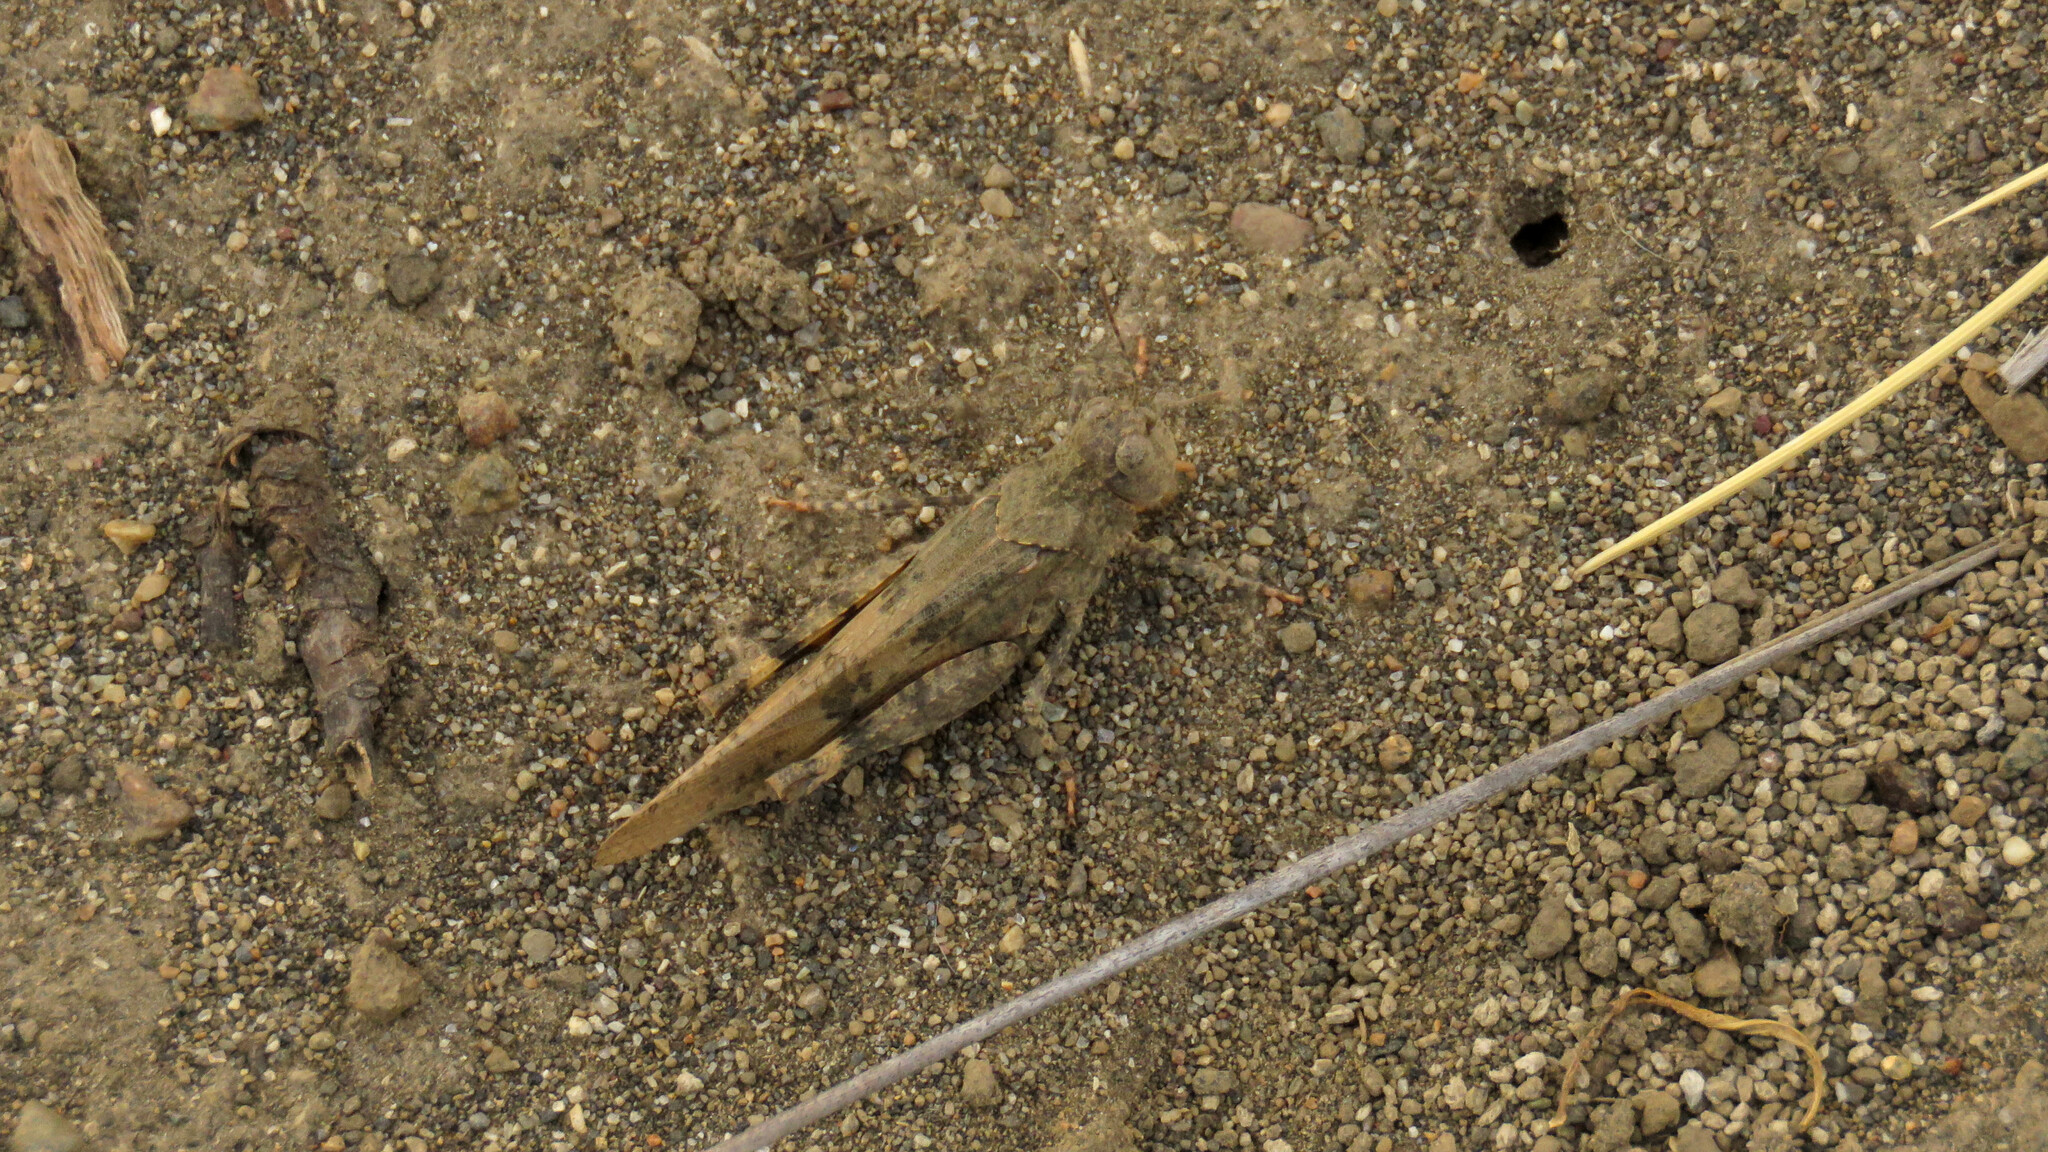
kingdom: Animalia
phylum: Arthropoda
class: Insecta
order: Orthoptera
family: Acrididae
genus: Trimerotropis
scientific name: Trimerotropis pallidipennis
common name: Pallid-winged grasshopper
